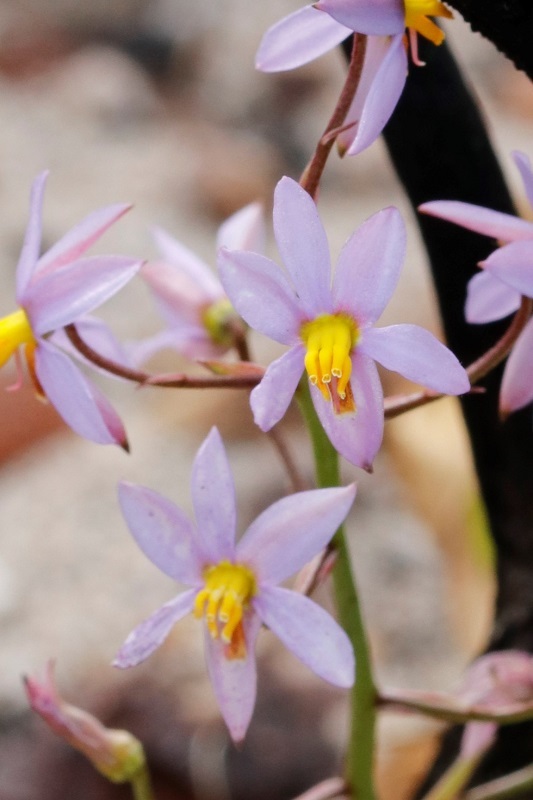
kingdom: Plantae
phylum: Tracheophyta
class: Liliopsida
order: Asparagales
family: Tecophilaeaceae
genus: Cyanella
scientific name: Cyanella hyacinthoides
